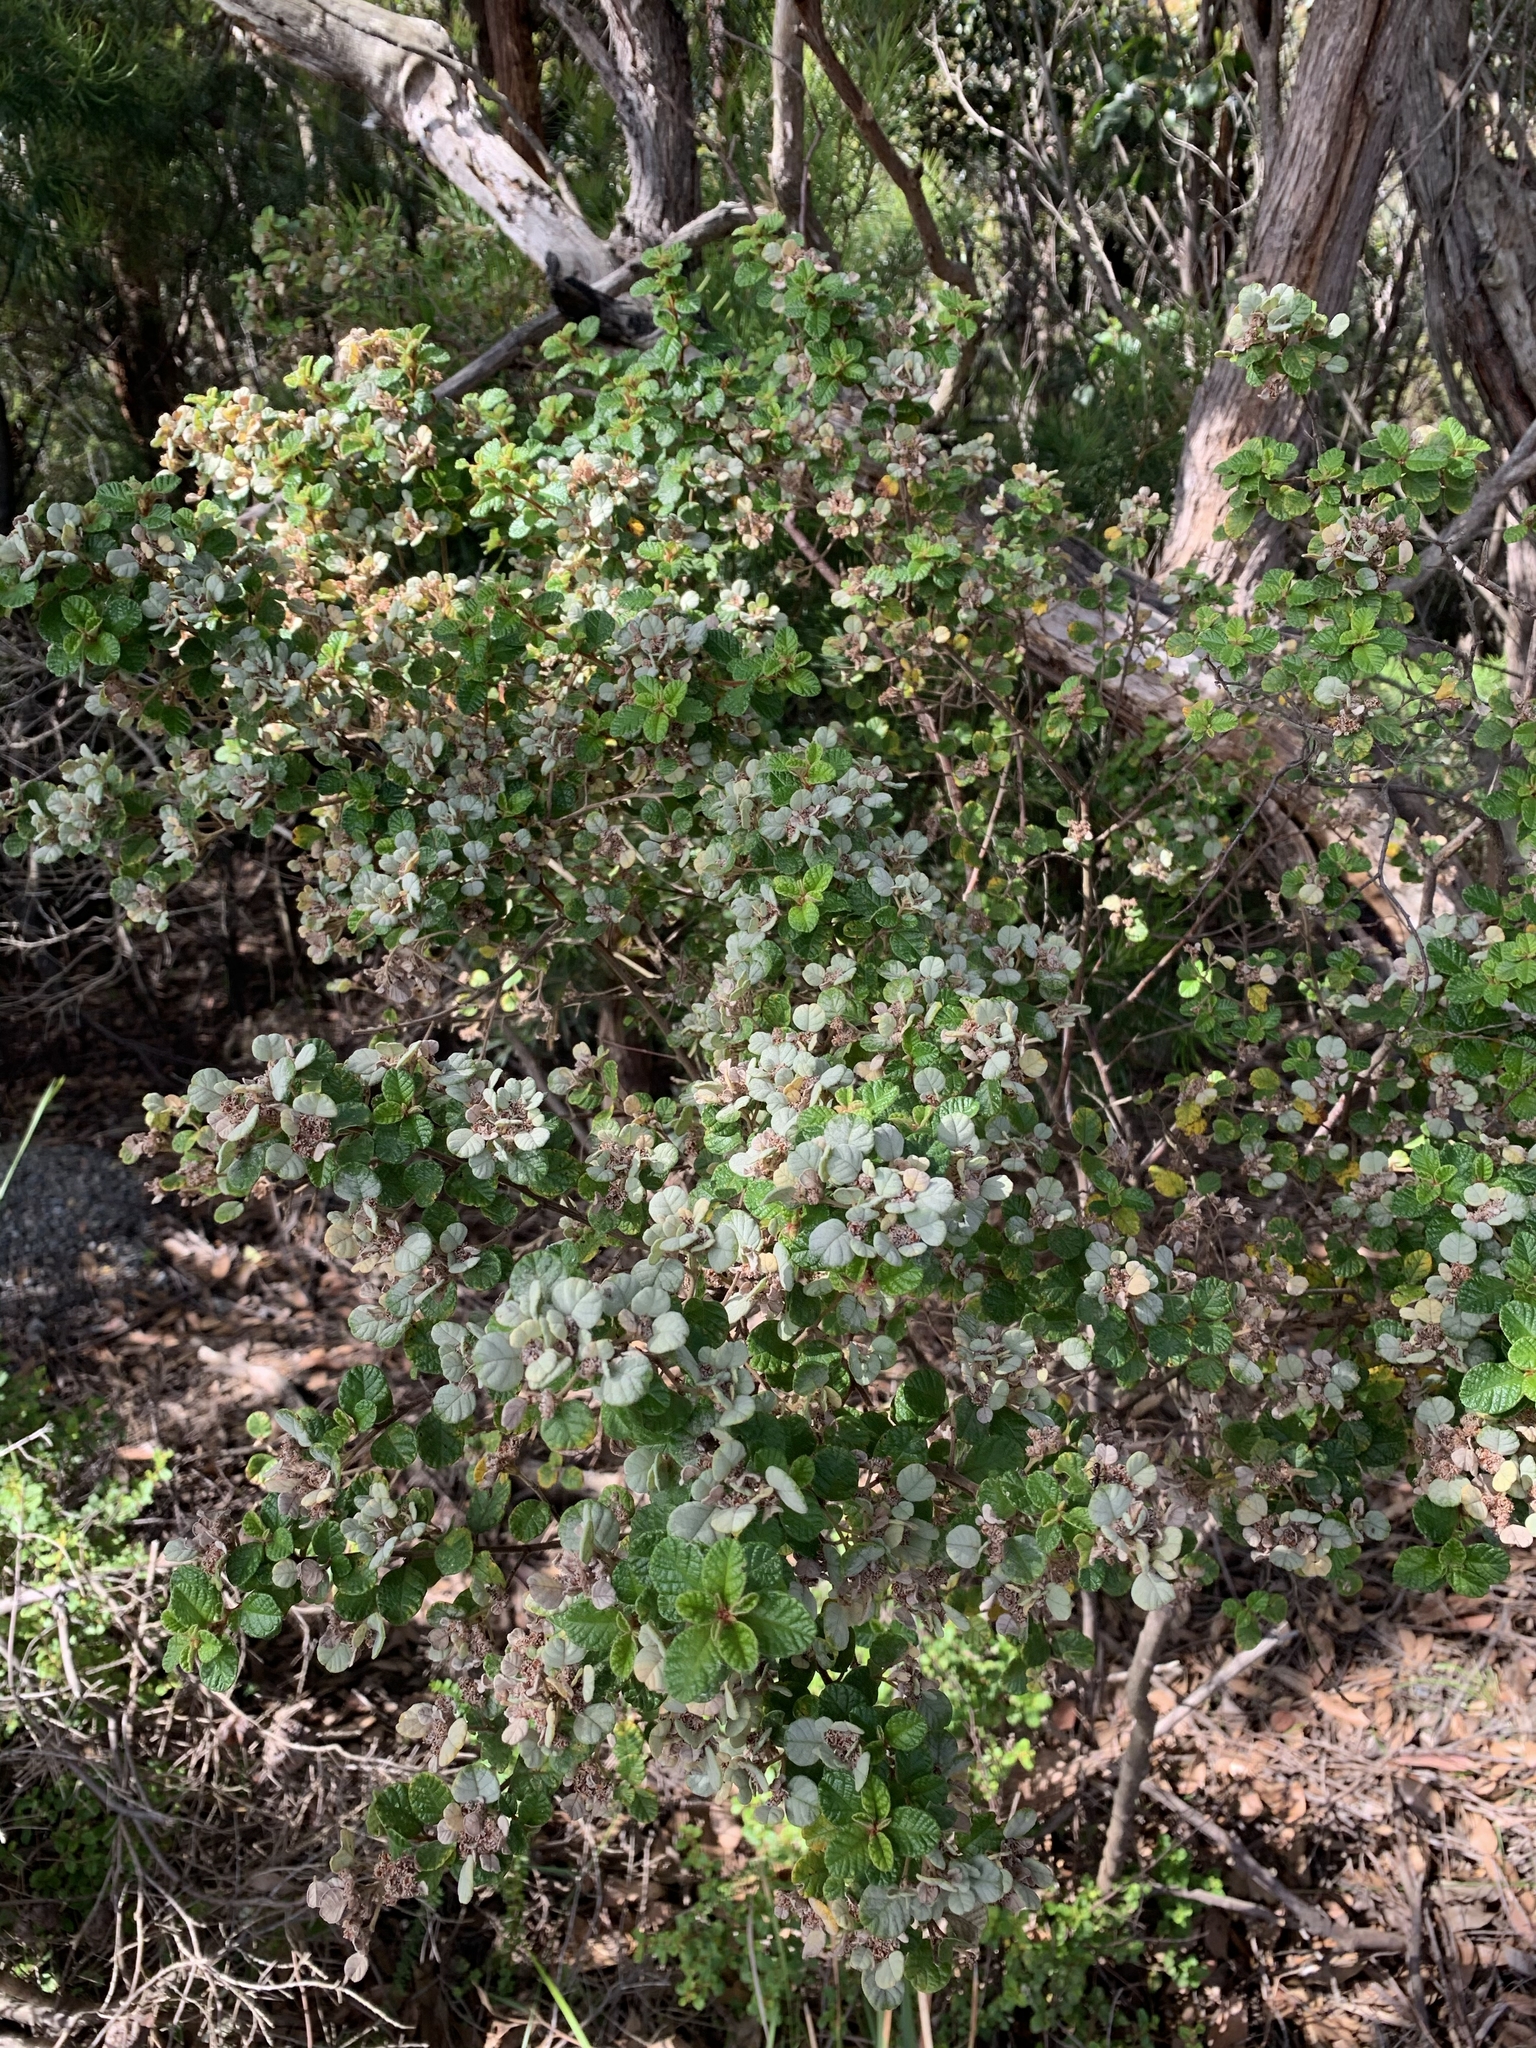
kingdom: Plantae
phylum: Tracheophyta
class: Magnoliopsida
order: Rosales
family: Rhamnaceae
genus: Spyridium
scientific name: Spyridium parvifolium
